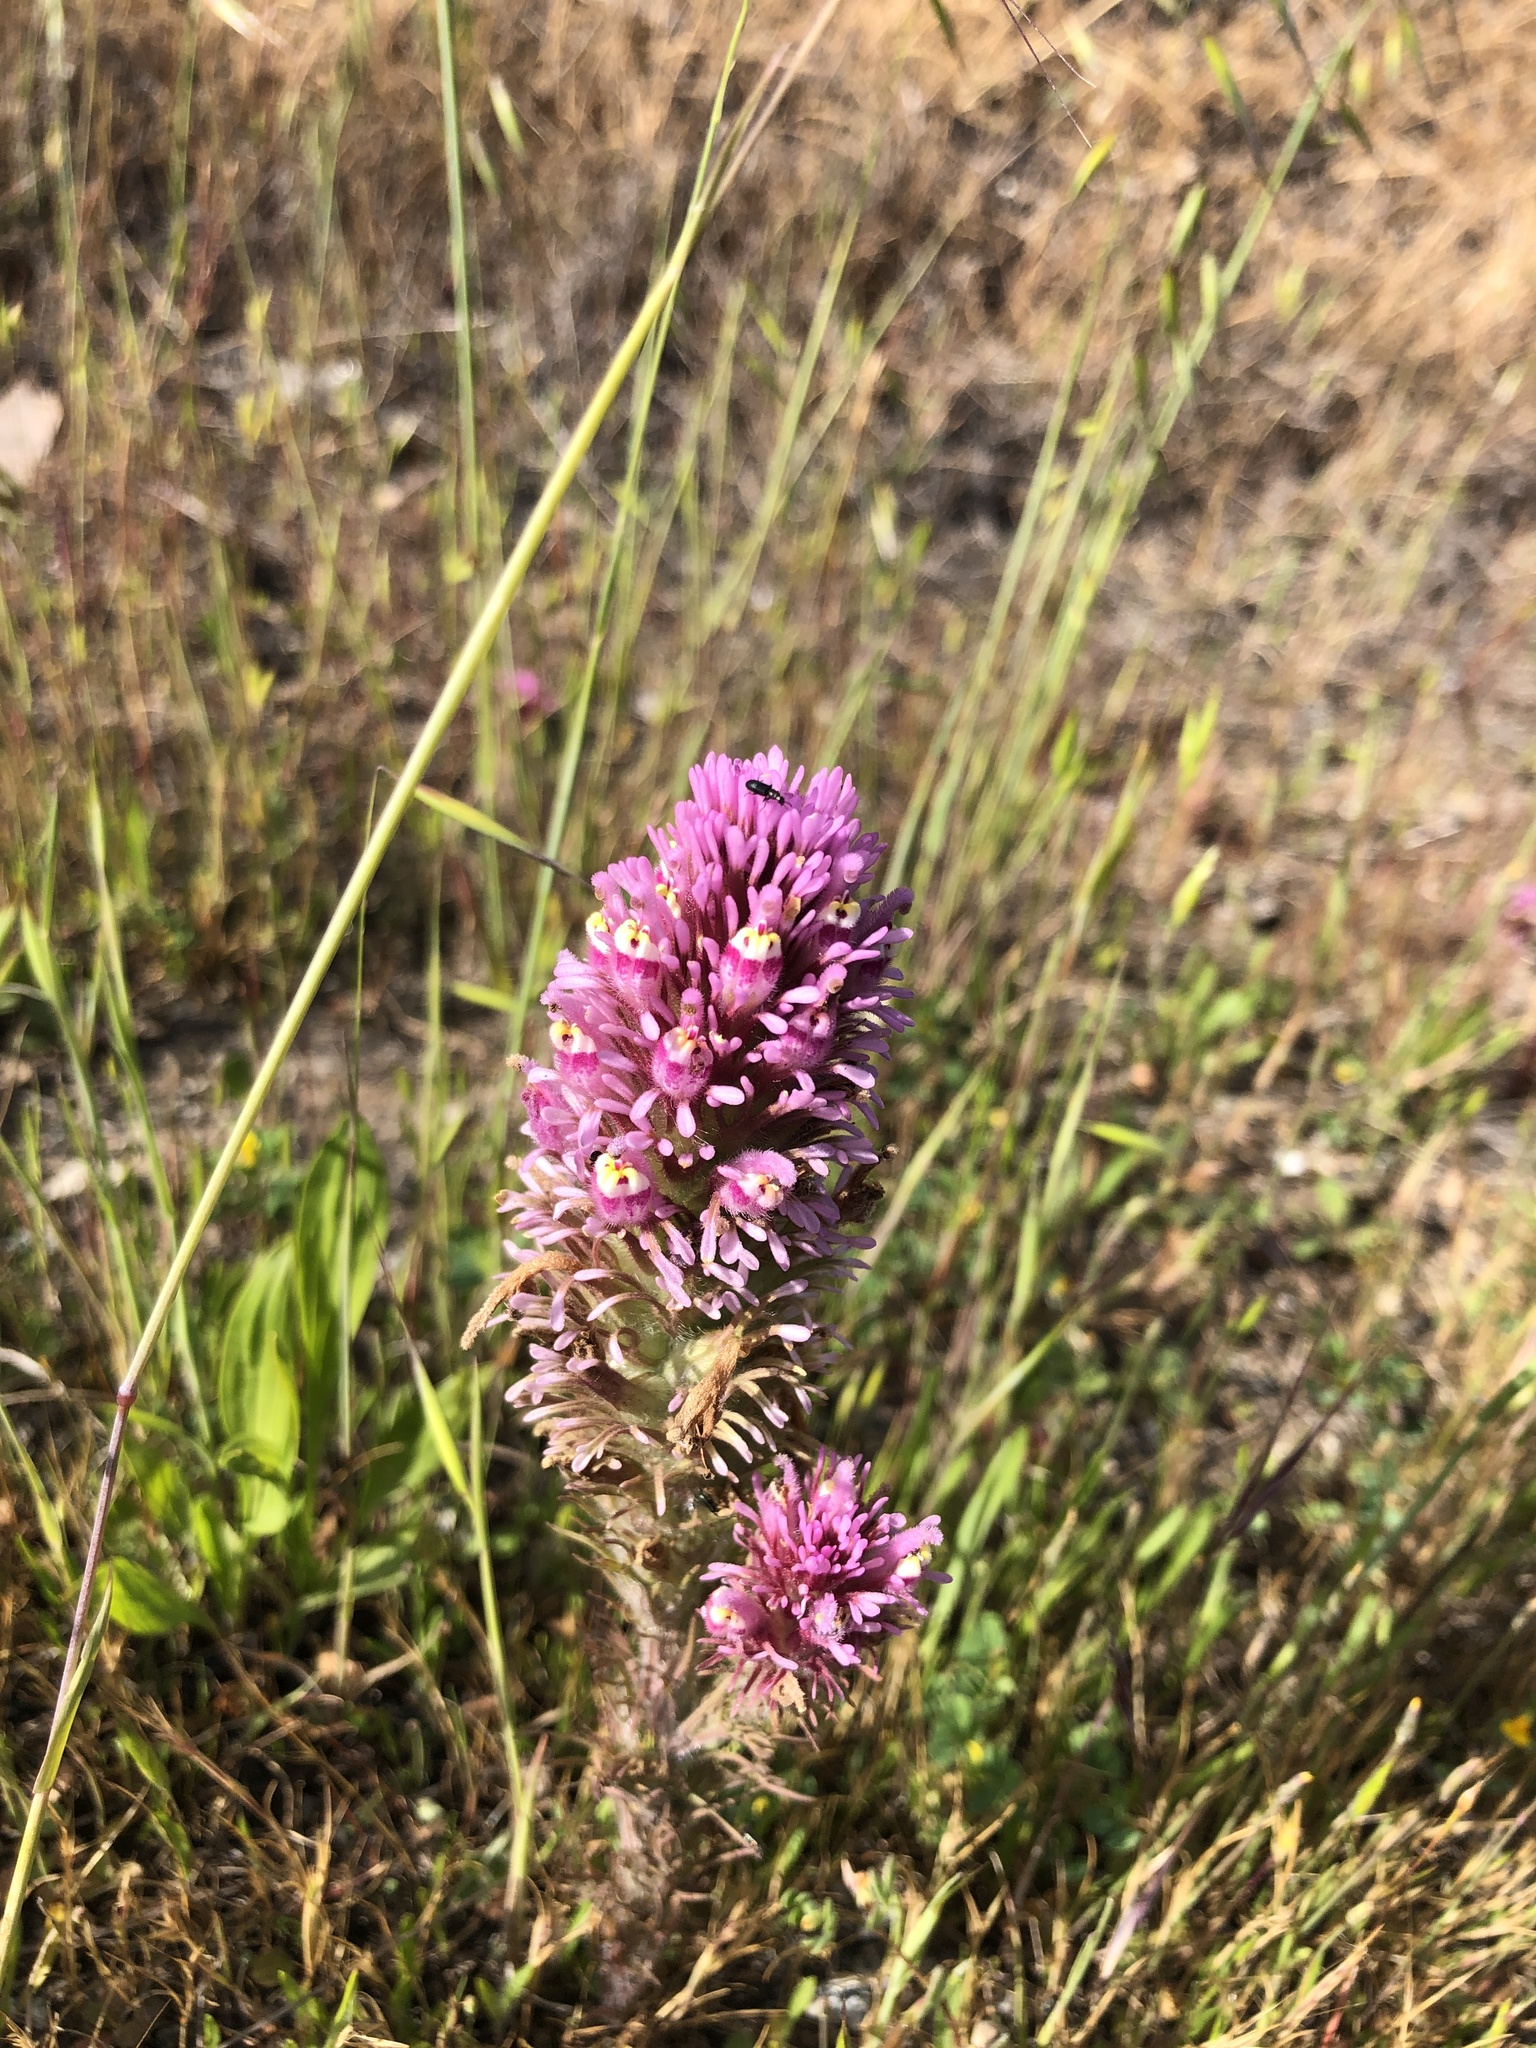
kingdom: Plantae
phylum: Tracheophyta
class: Magnoliopsida
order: Lamiales
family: Orobanchaceae
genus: Castilleja
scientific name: Castilleja exserta
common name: Purple owl-clover
